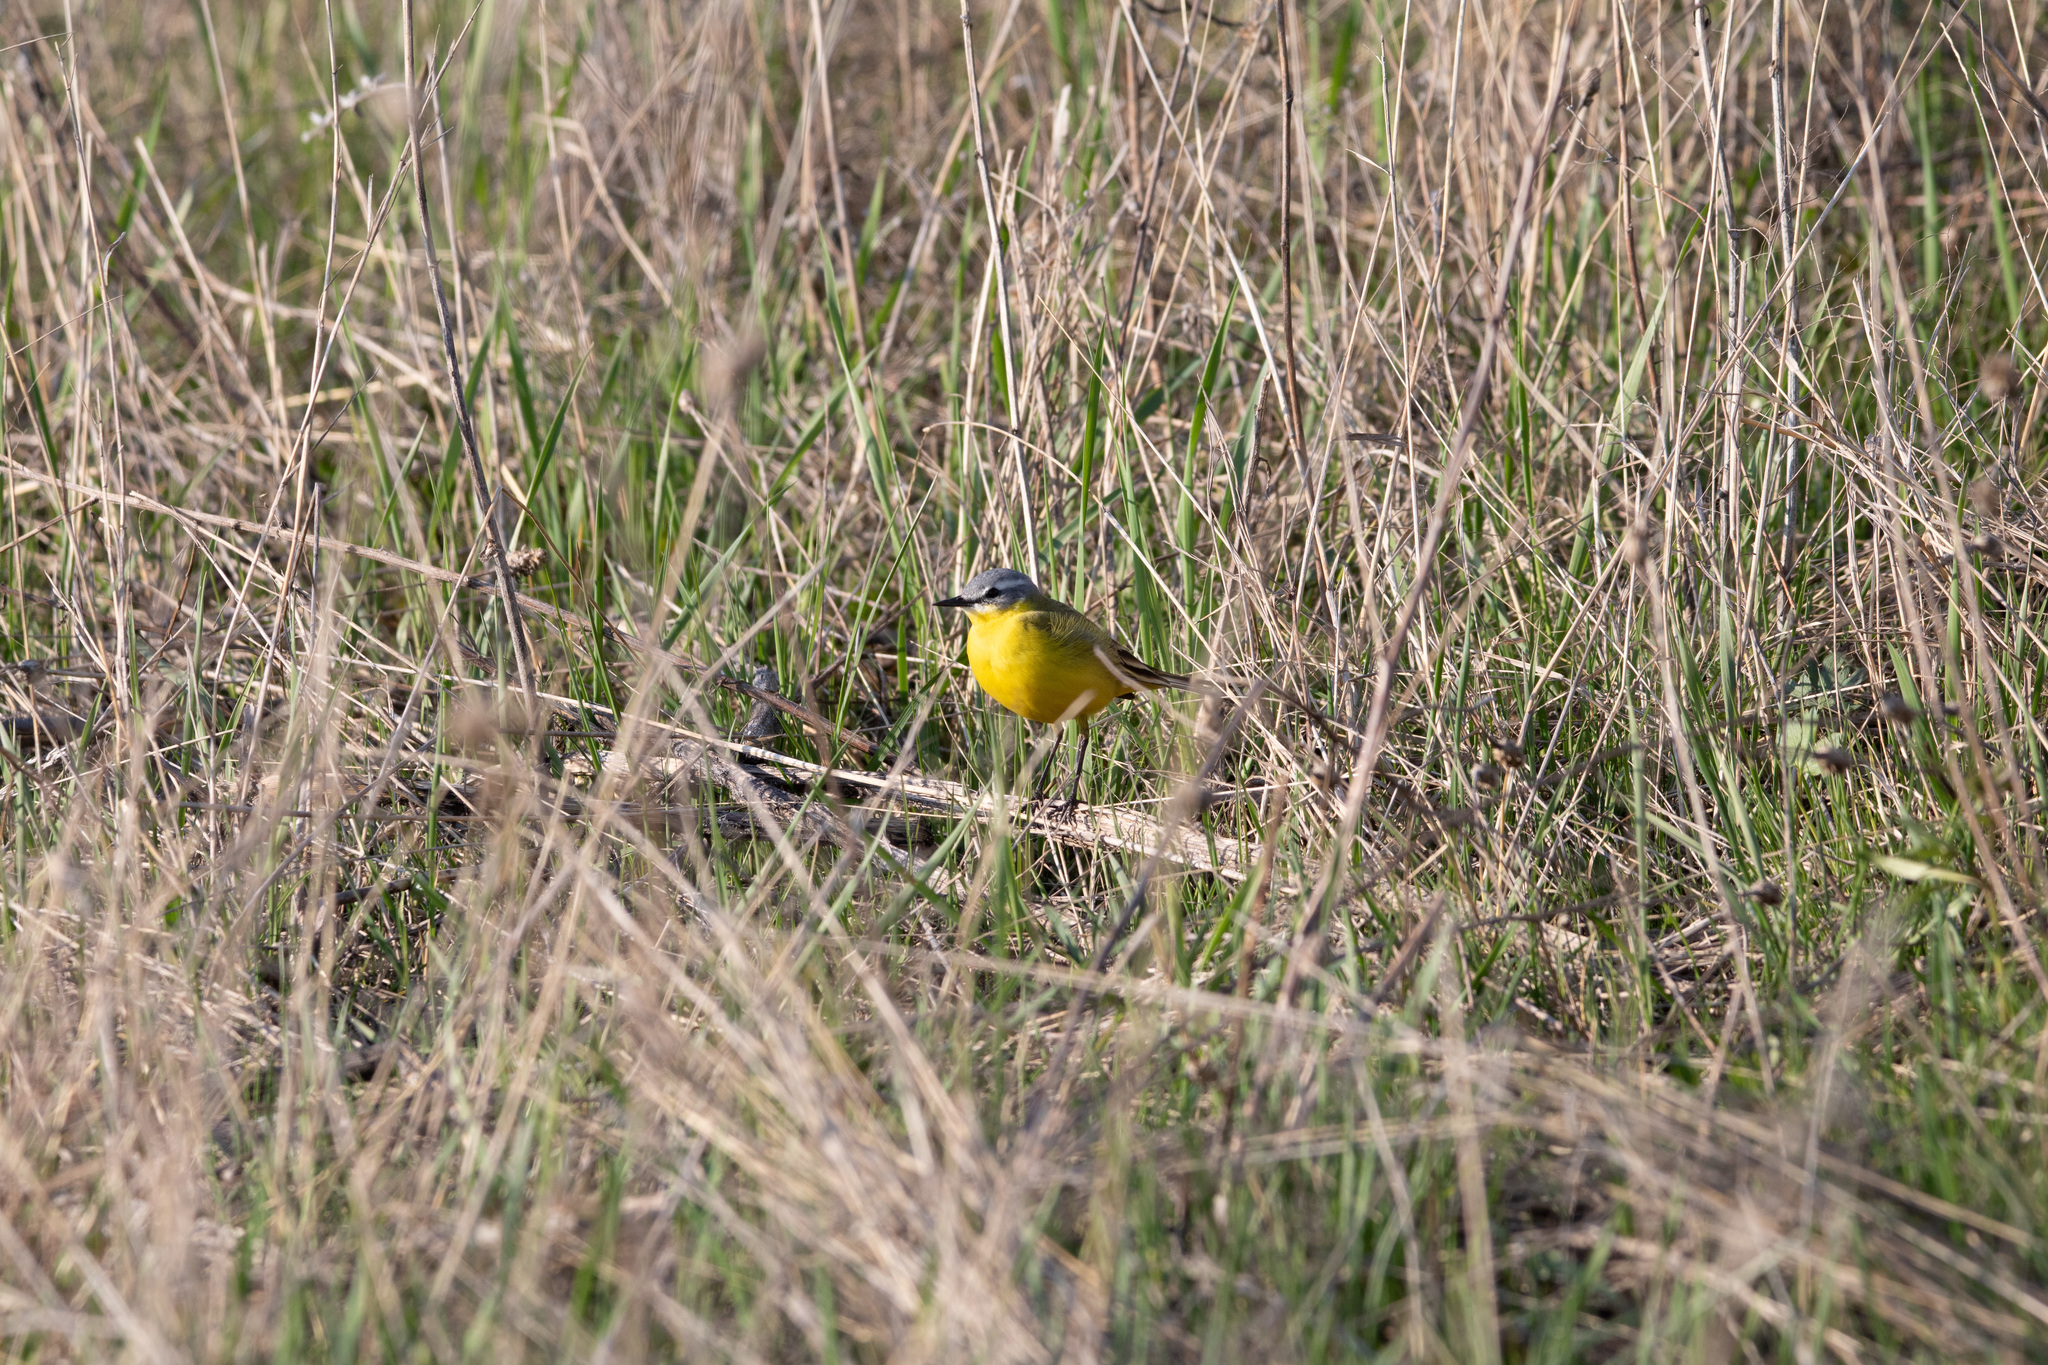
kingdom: Animalia
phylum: Chordata
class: Aves
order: Passeriformes
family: Motacillidae
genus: Motacilla
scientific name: Motacilla flava
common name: Western yellow wagtail
